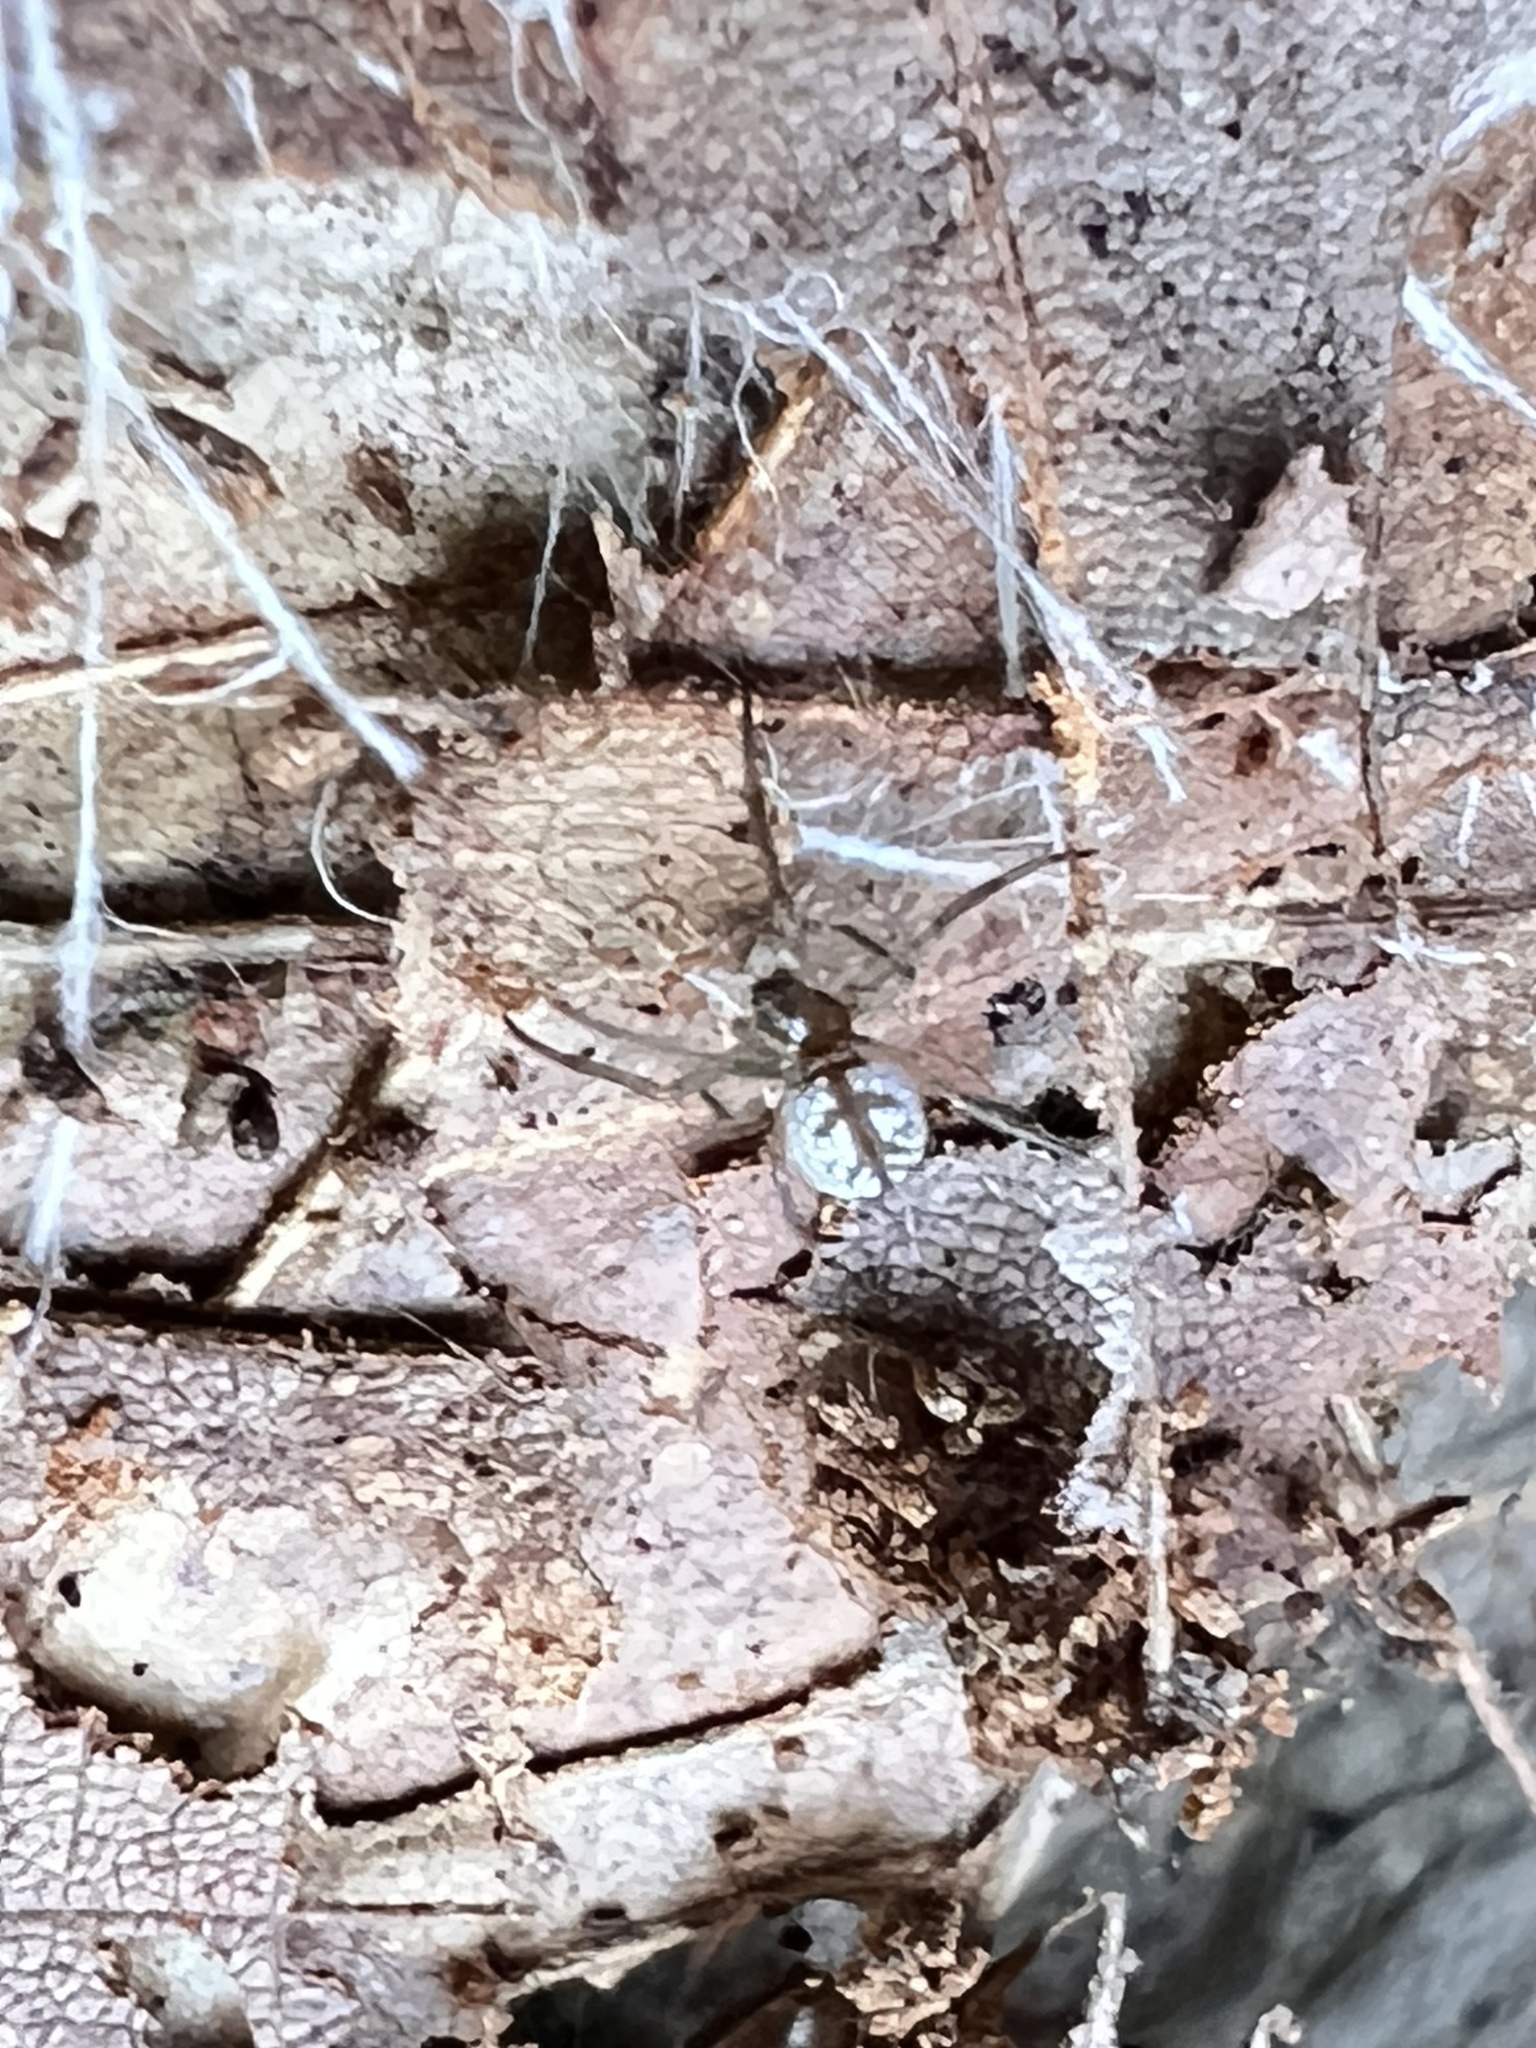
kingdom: Animalia
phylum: Arthropoda
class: Arachnida
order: Araneae
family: Tetragnathidae
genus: Leucauge
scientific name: Leucauge venusta
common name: Longjawed orb weavers
